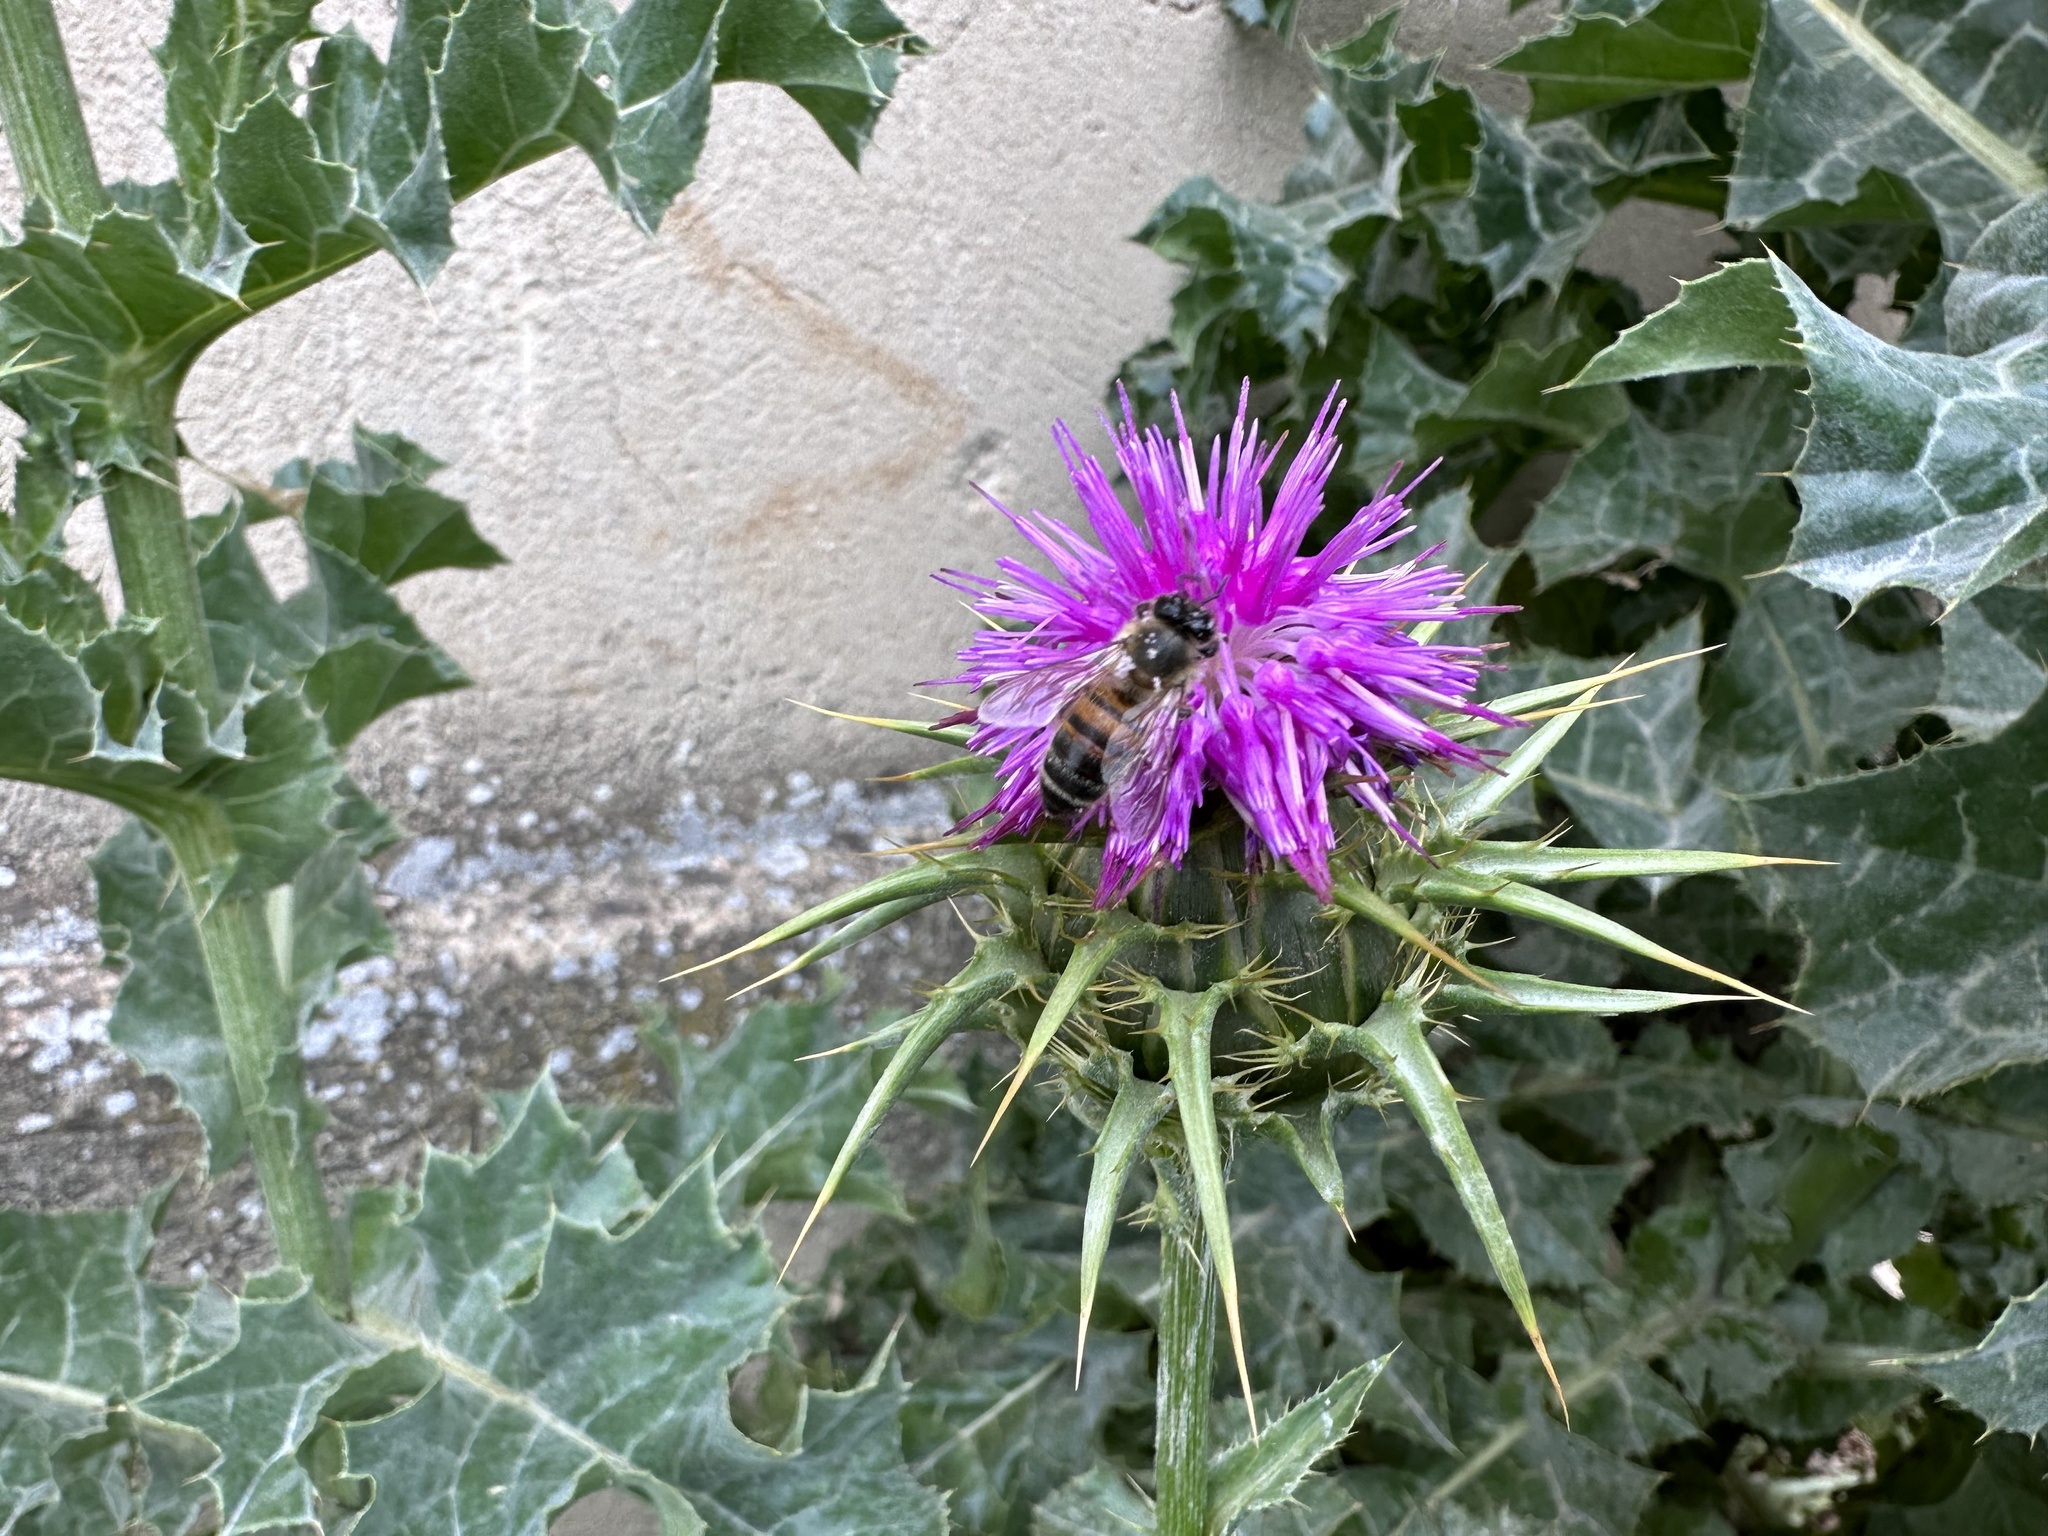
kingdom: Animalia
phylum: Arthropoda
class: Insecta
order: Hymenoptera
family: Apidae
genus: Apis
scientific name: Apis mellifera
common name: Honey bee
